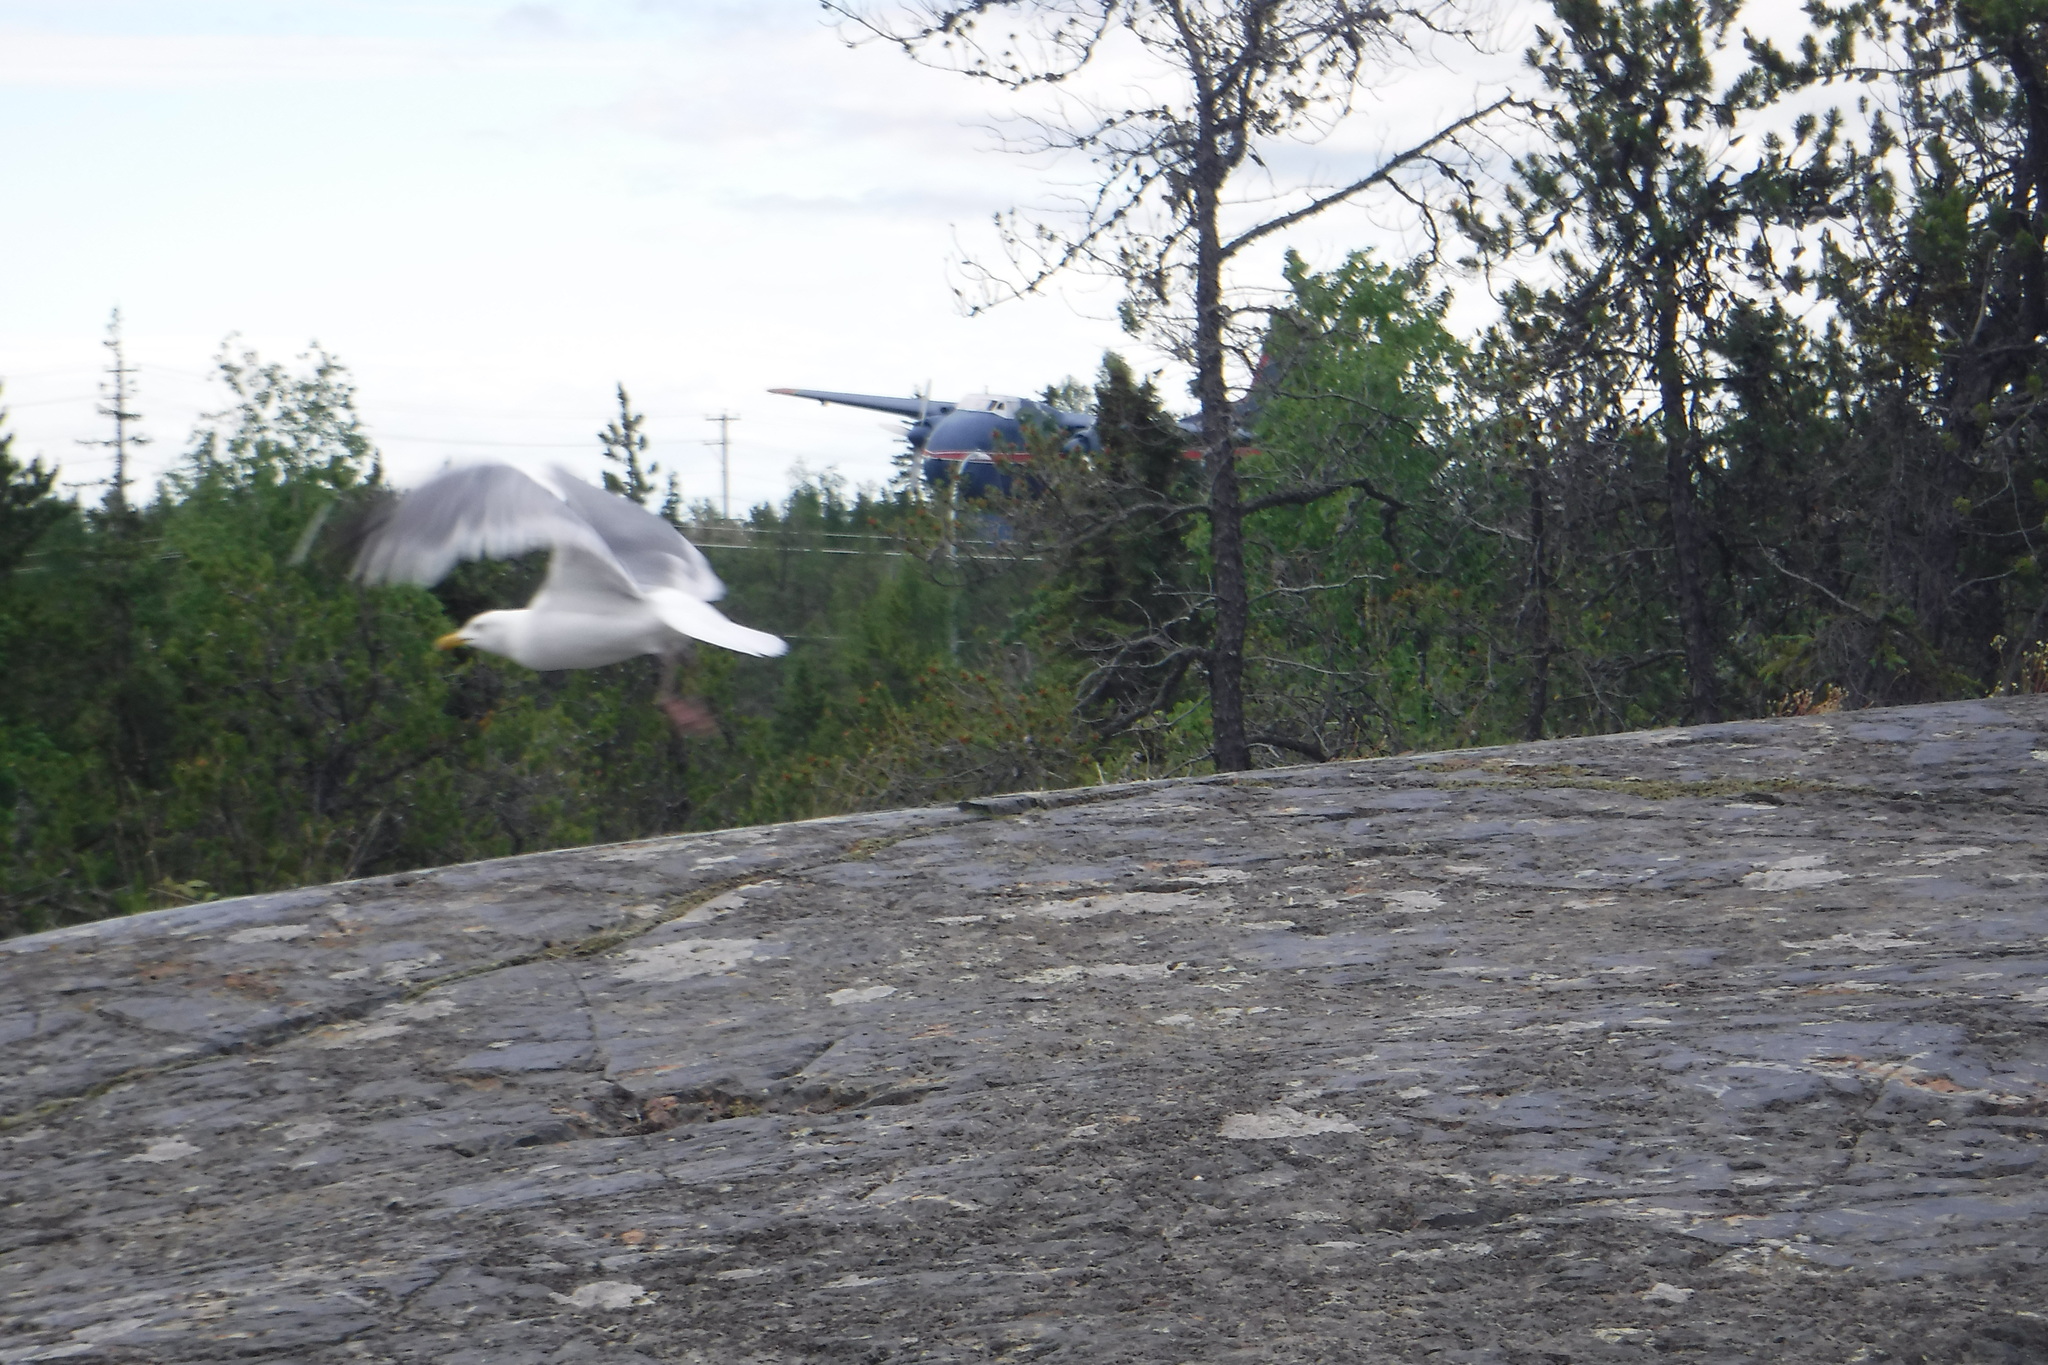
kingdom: Animalia
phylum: Chordata
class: Aves
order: Charadriiformes
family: Laridae
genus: Larus
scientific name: Larus argentatus
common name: Herring gull
